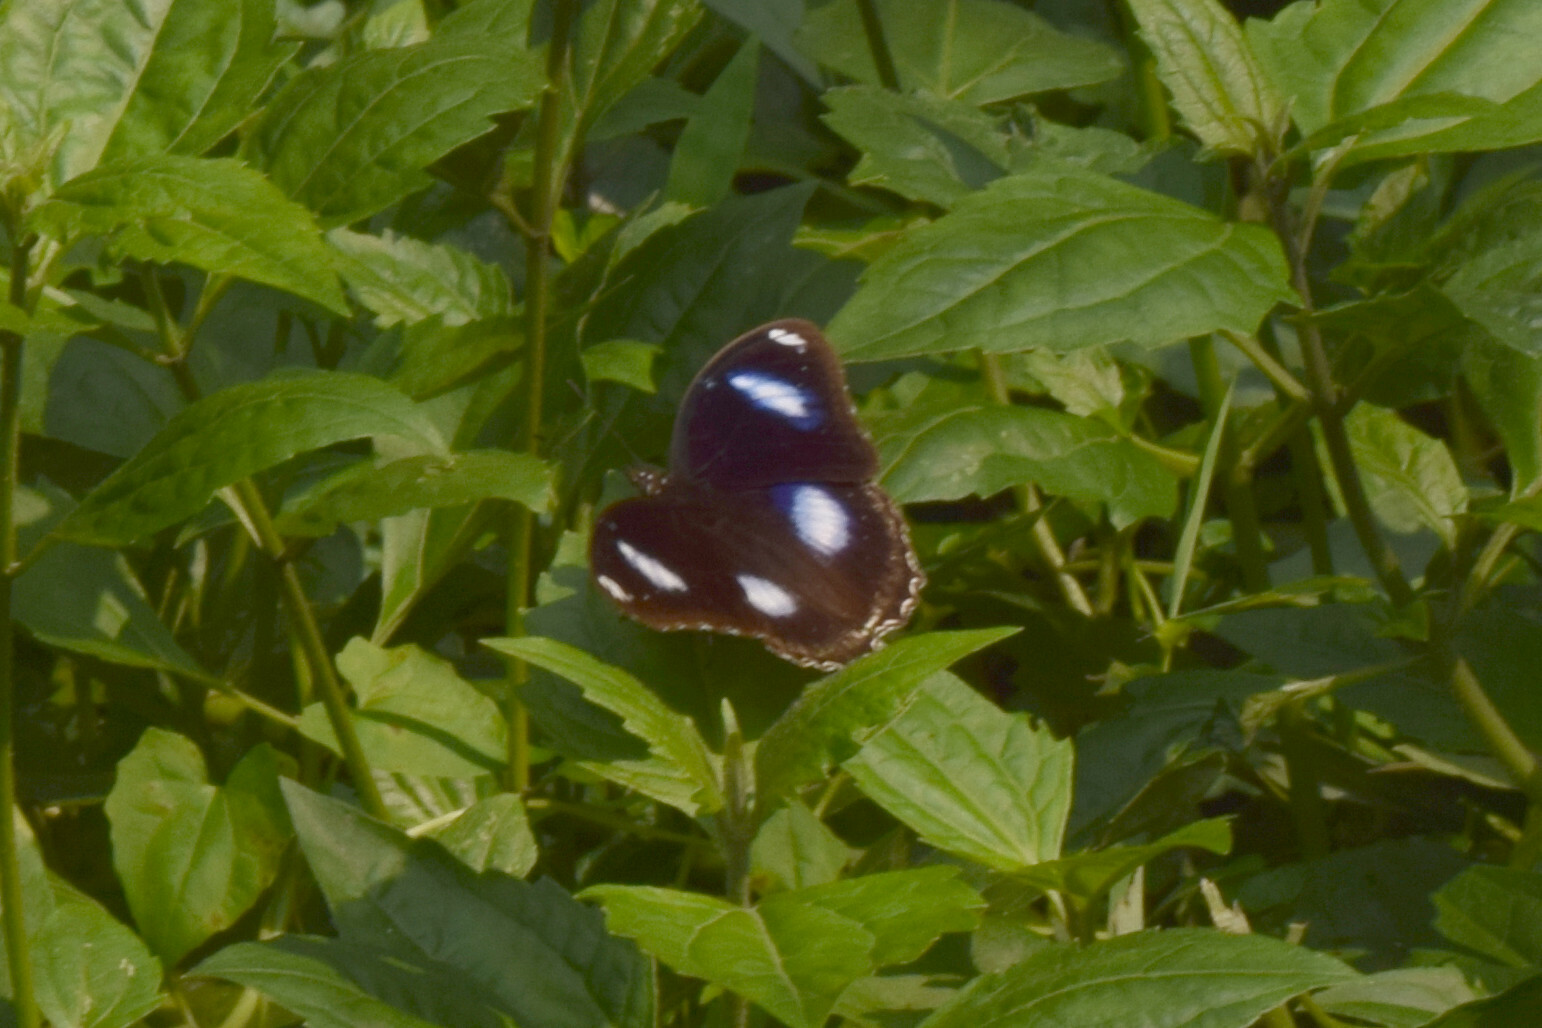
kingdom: Animalia
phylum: Arthropoda
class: Insecta
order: Lepidoptera
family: Nymphalidae
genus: Hypolimnas
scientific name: Hypolimnas bolina
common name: Great eggfly
